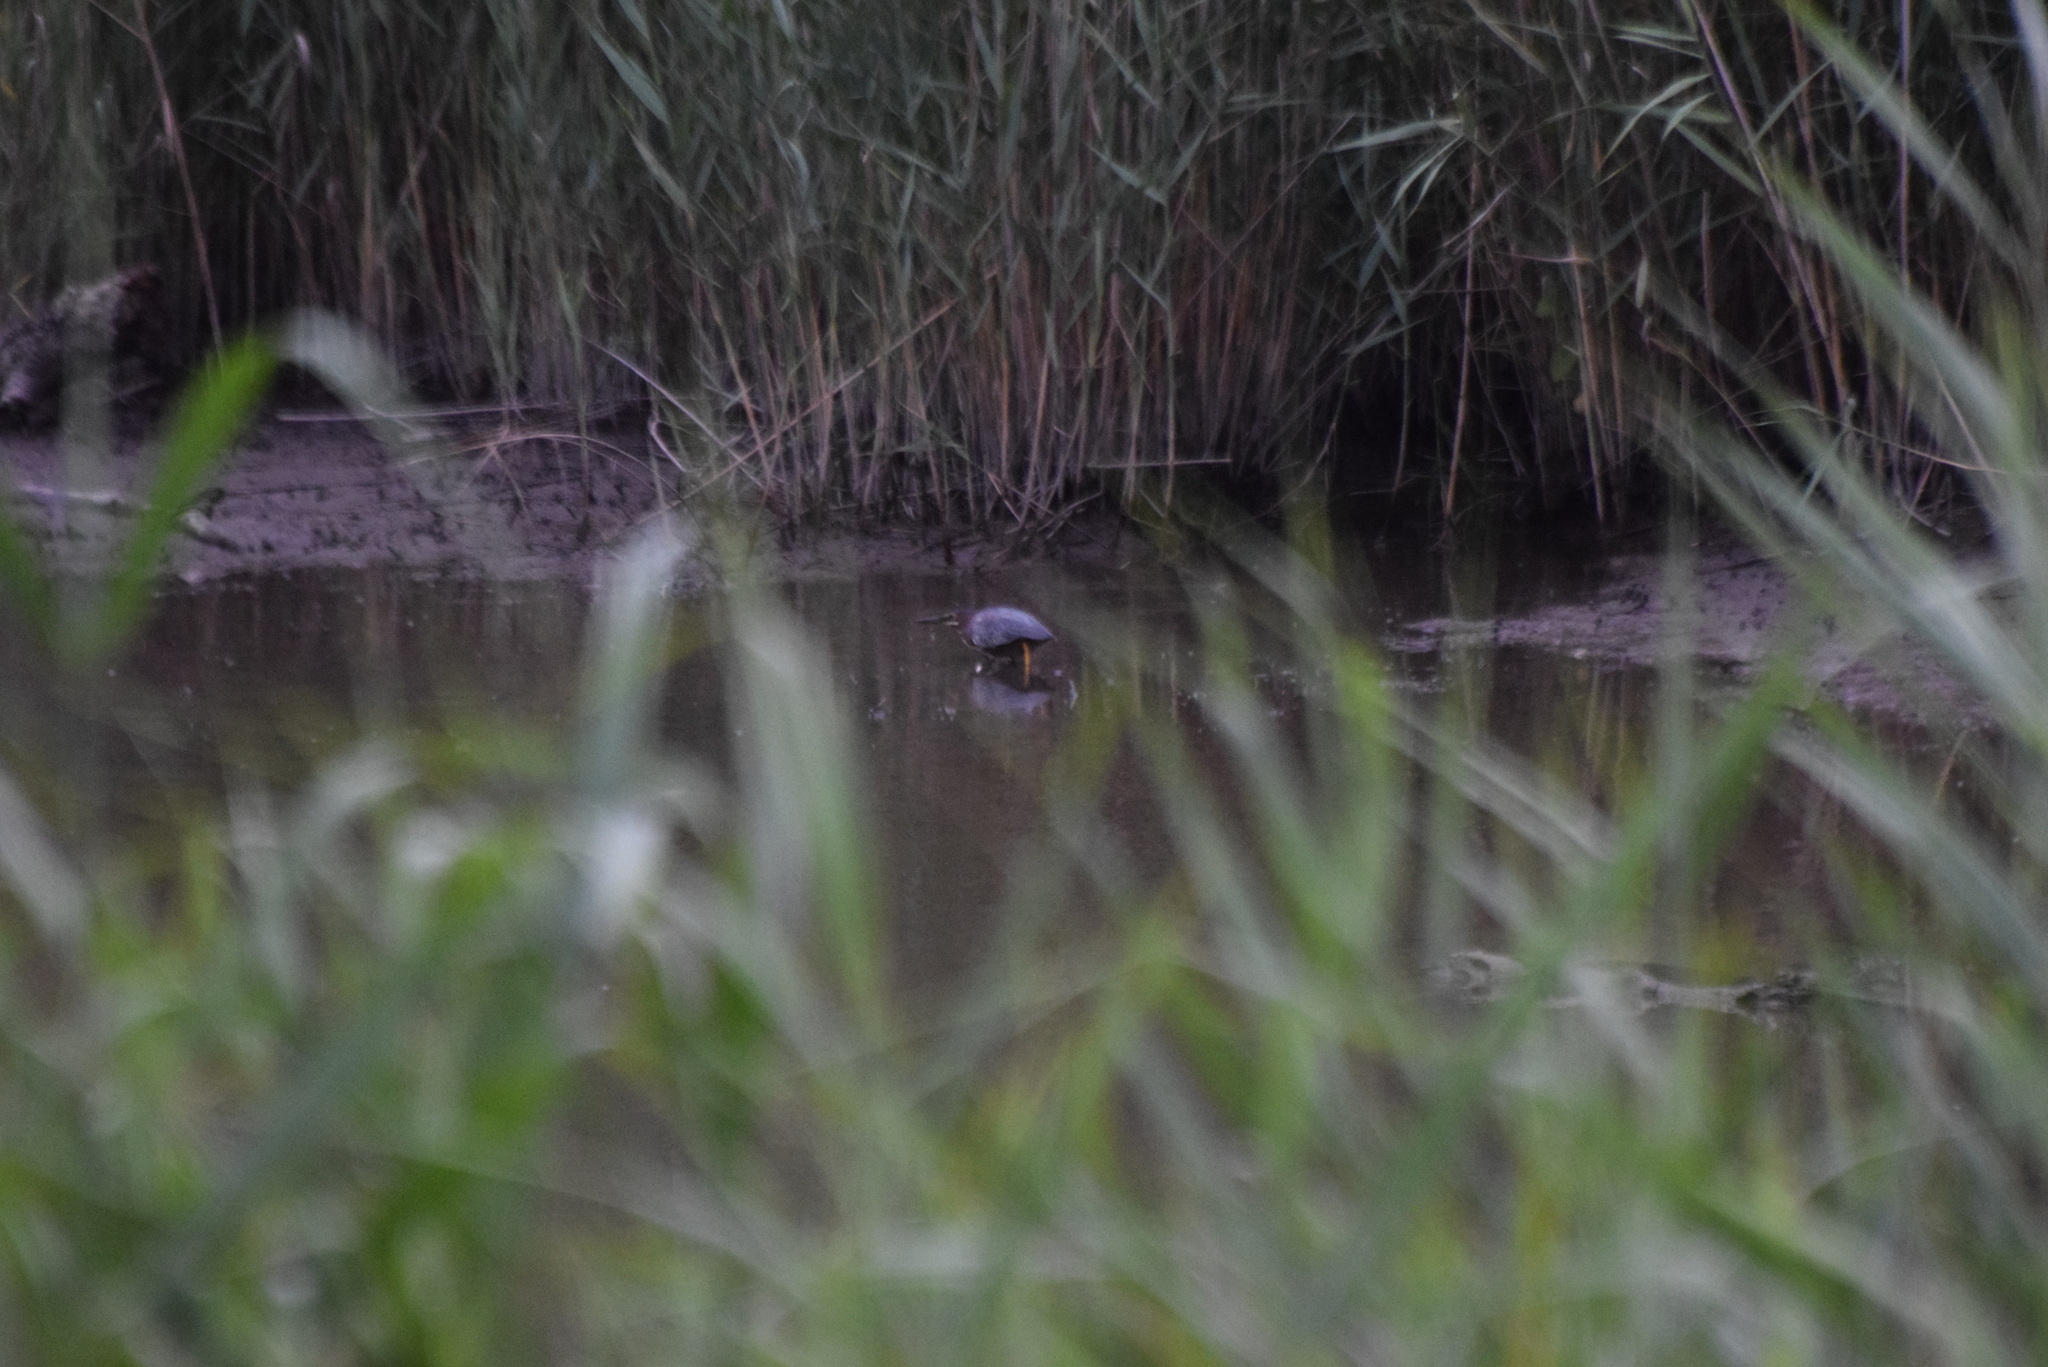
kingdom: Animalia
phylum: Chordata
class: Aves
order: Pelecaniformes
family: Ardeidae
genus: Butorides
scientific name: Butorides virescens
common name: Green heron
